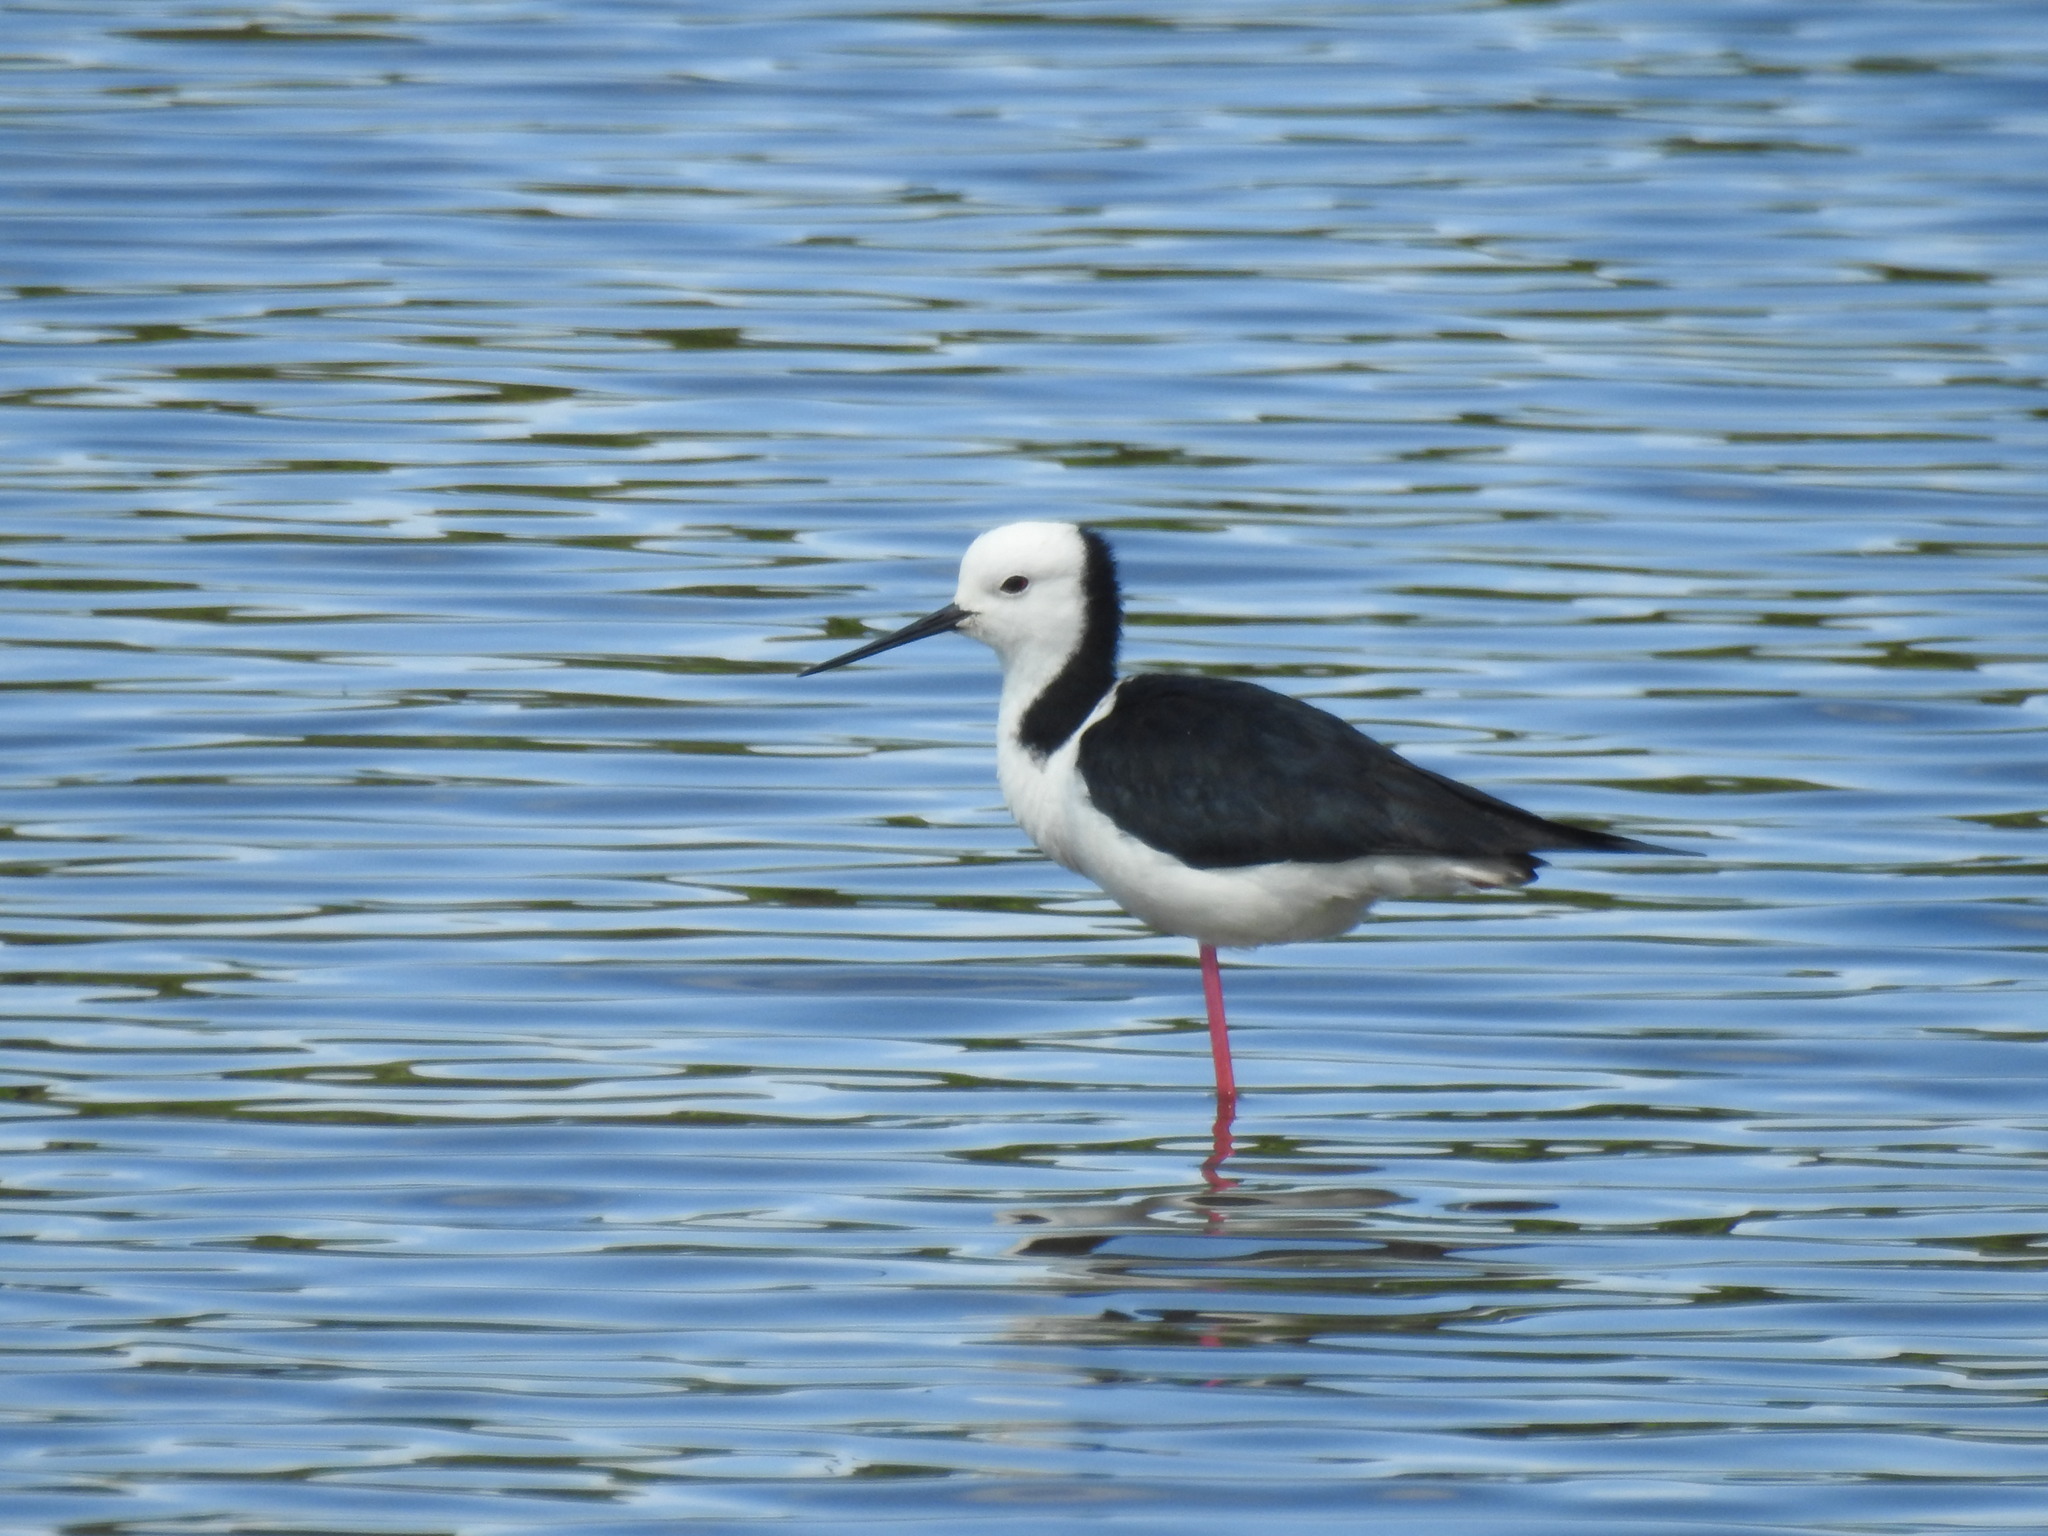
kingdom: Animalia
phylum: Chordata
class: Aves
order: Charadriiformes
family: Recurvirostridae
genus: Himantopus
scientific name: Himantopus leucocephalus
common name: White-headed stilt
